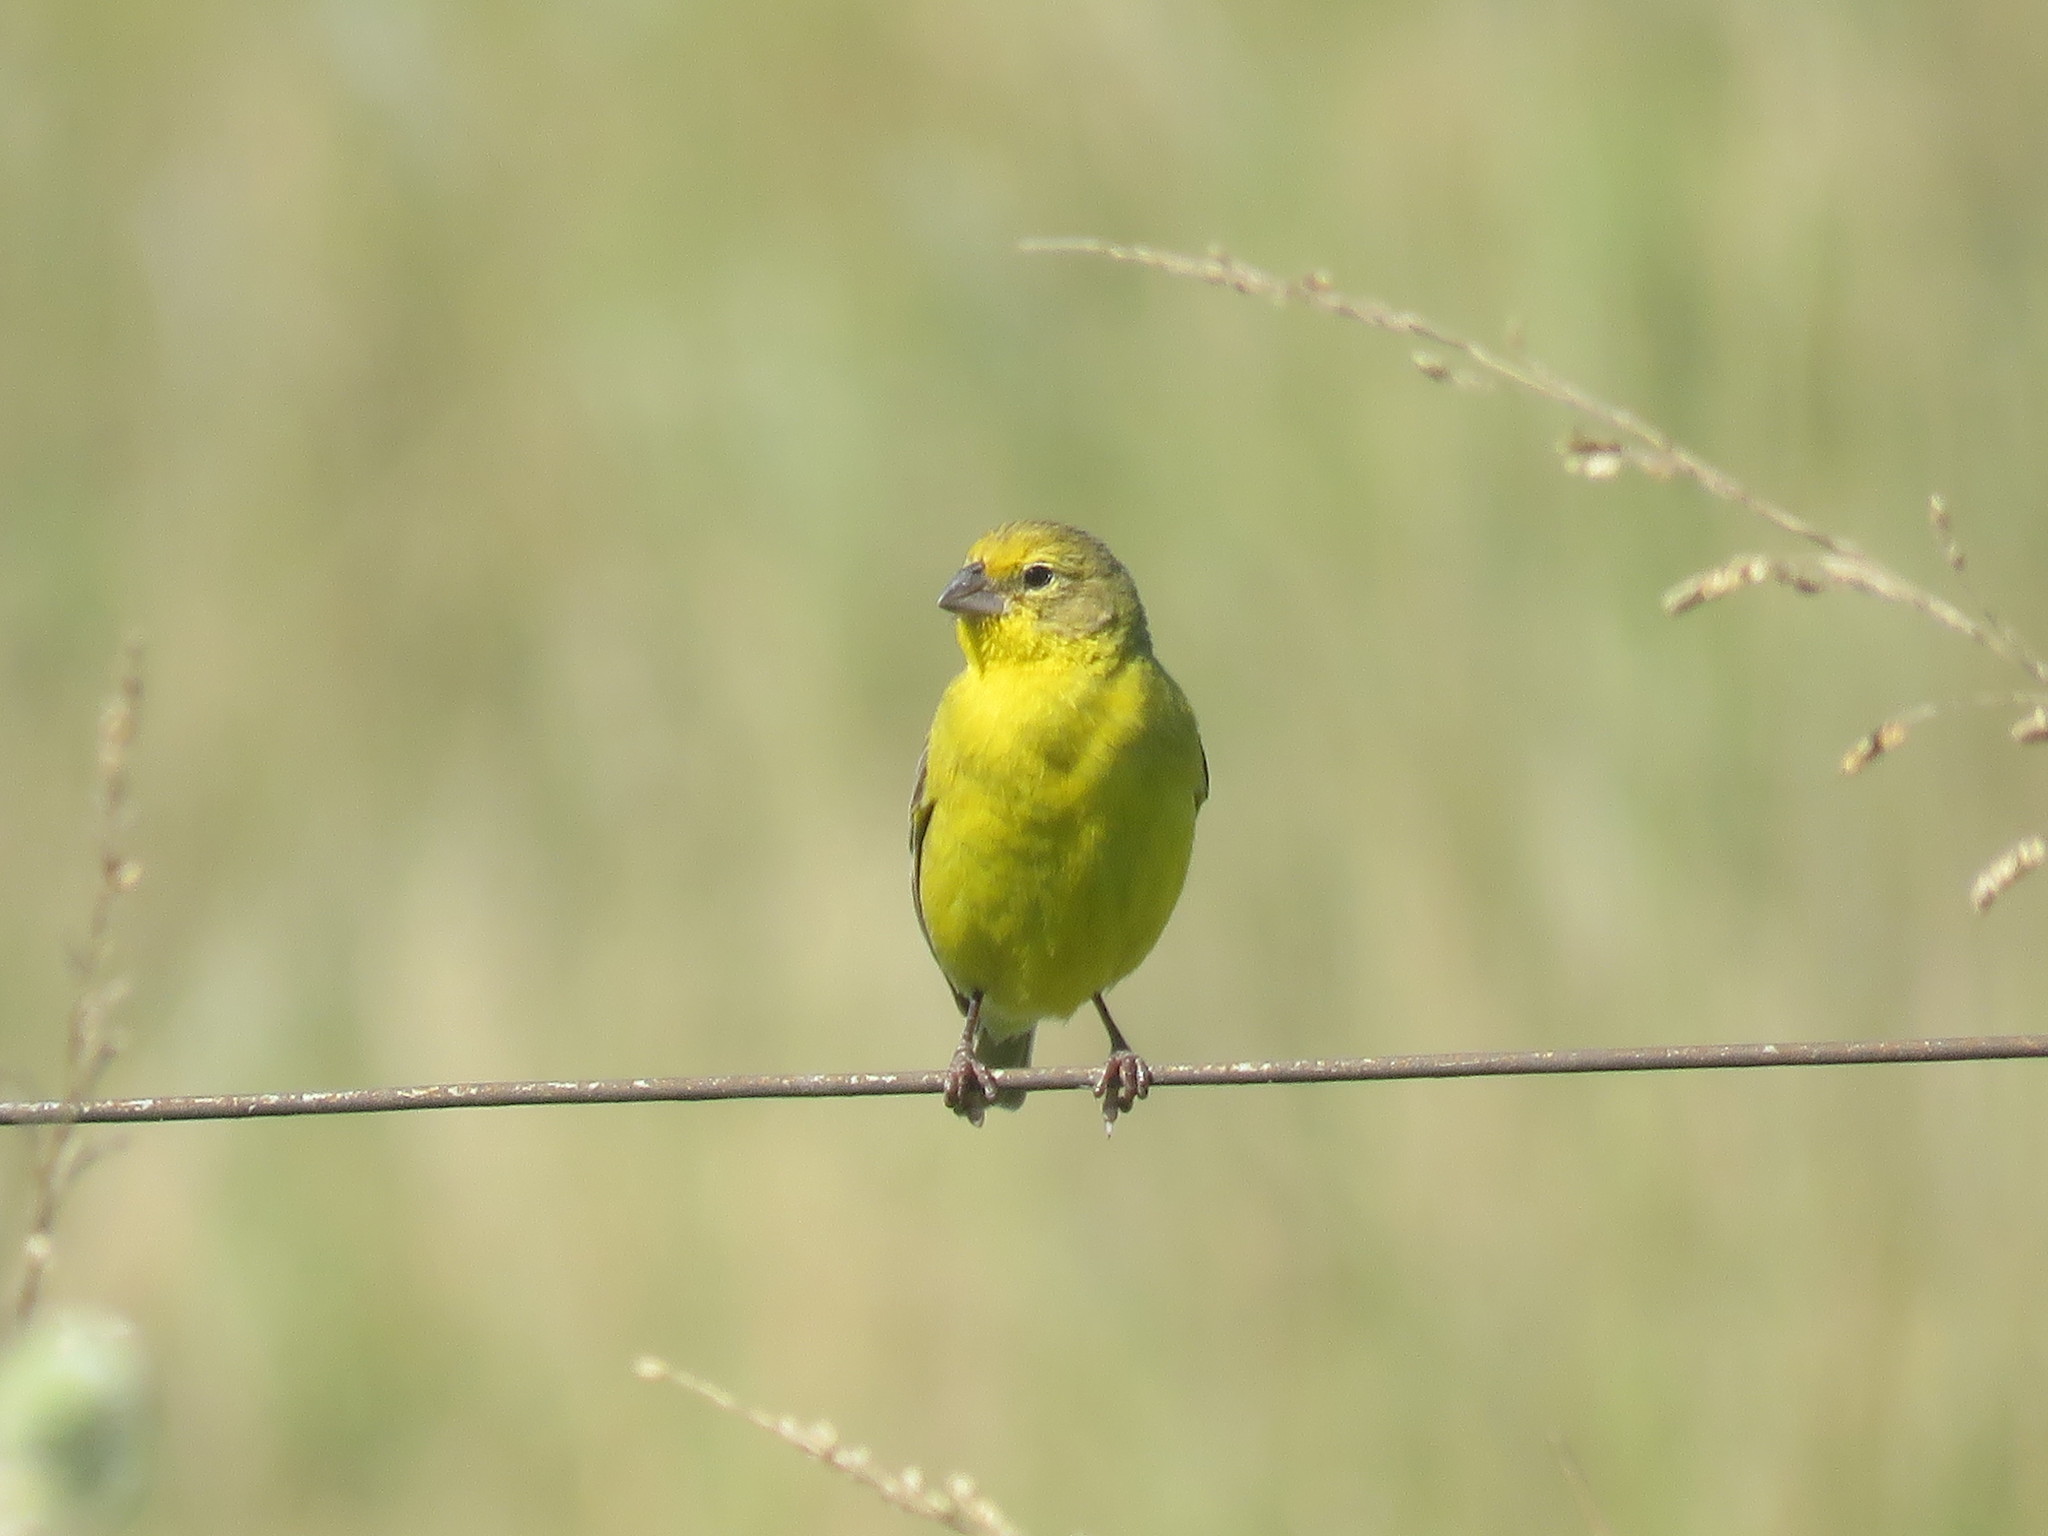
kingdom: Animalia
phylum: Chordata
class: Aves
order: Passeriformes
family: Thraupidae
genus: Sicalis
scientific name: Sicalis luteola
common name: Grassland yellow-finch
